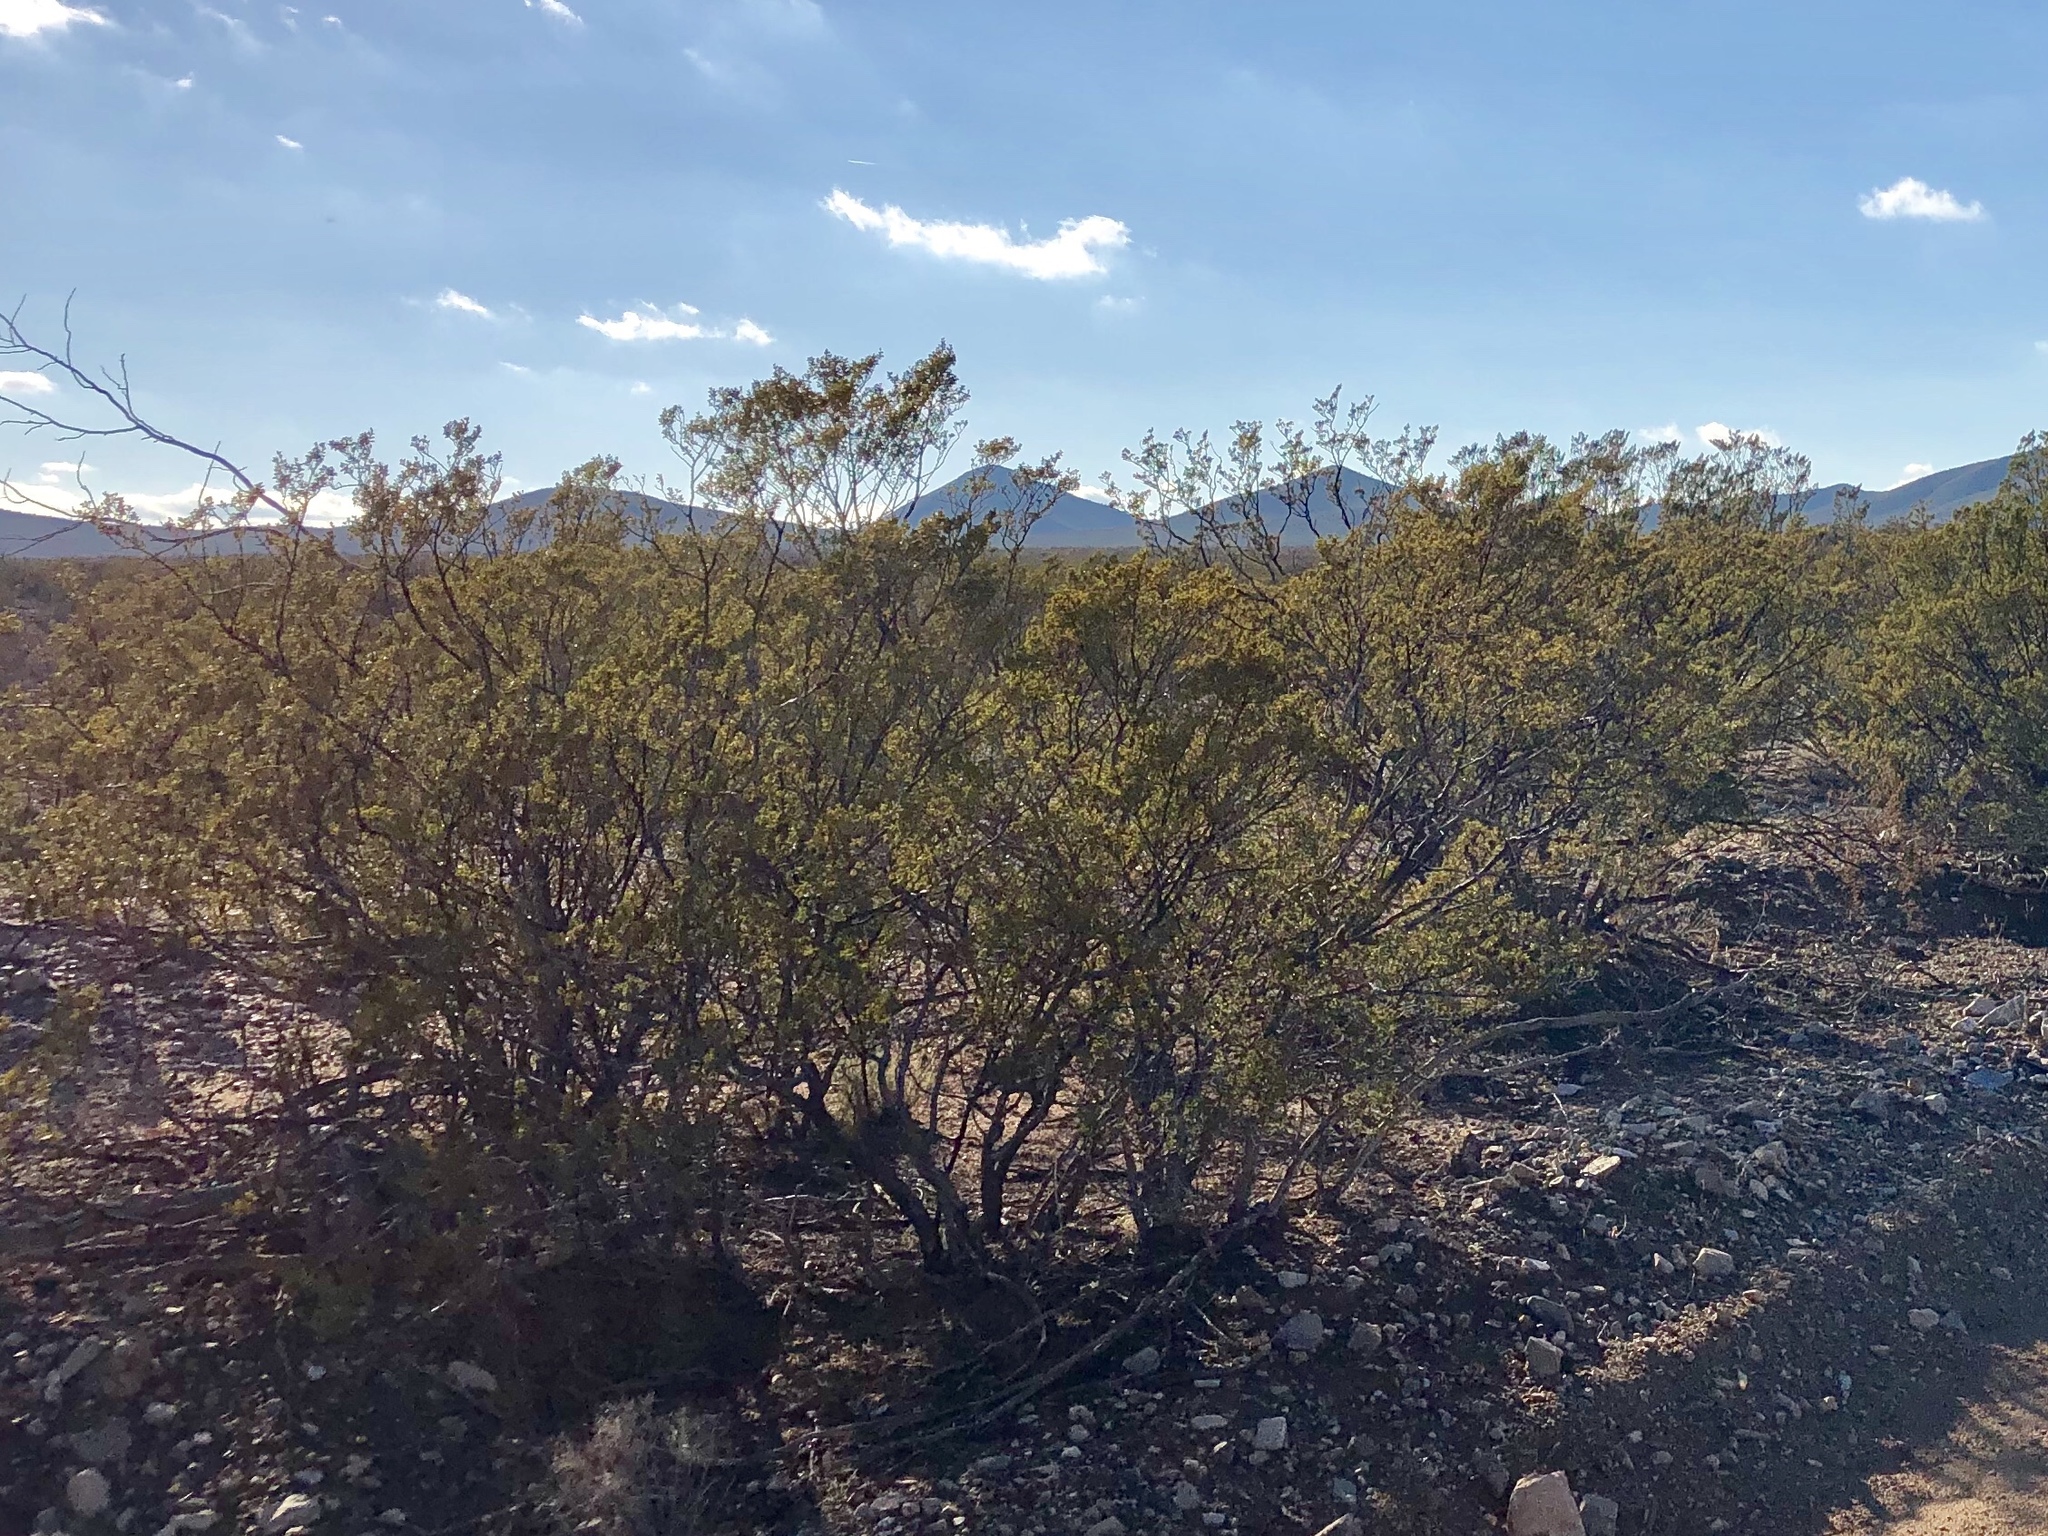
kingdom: Plantae
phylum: Tracheophyta
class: Magnoliopsida
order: Zygophyllales
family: Zygophyllaceae
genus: Larrea
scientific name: Larrea tridentata
